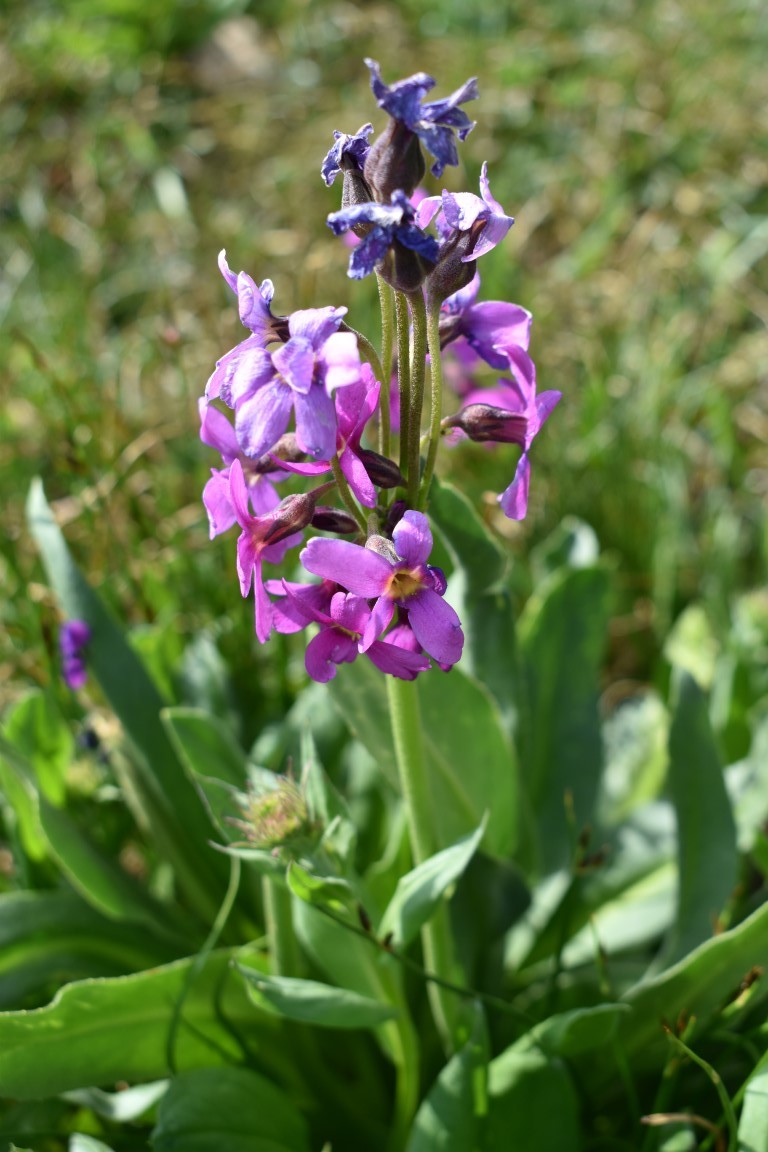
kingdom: Plantae
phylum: Tracheophyta
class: Magnoliopsida
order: Ericales
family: Primulaceae
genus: Primula
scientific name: Primula parryi
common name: Parry's primrose
